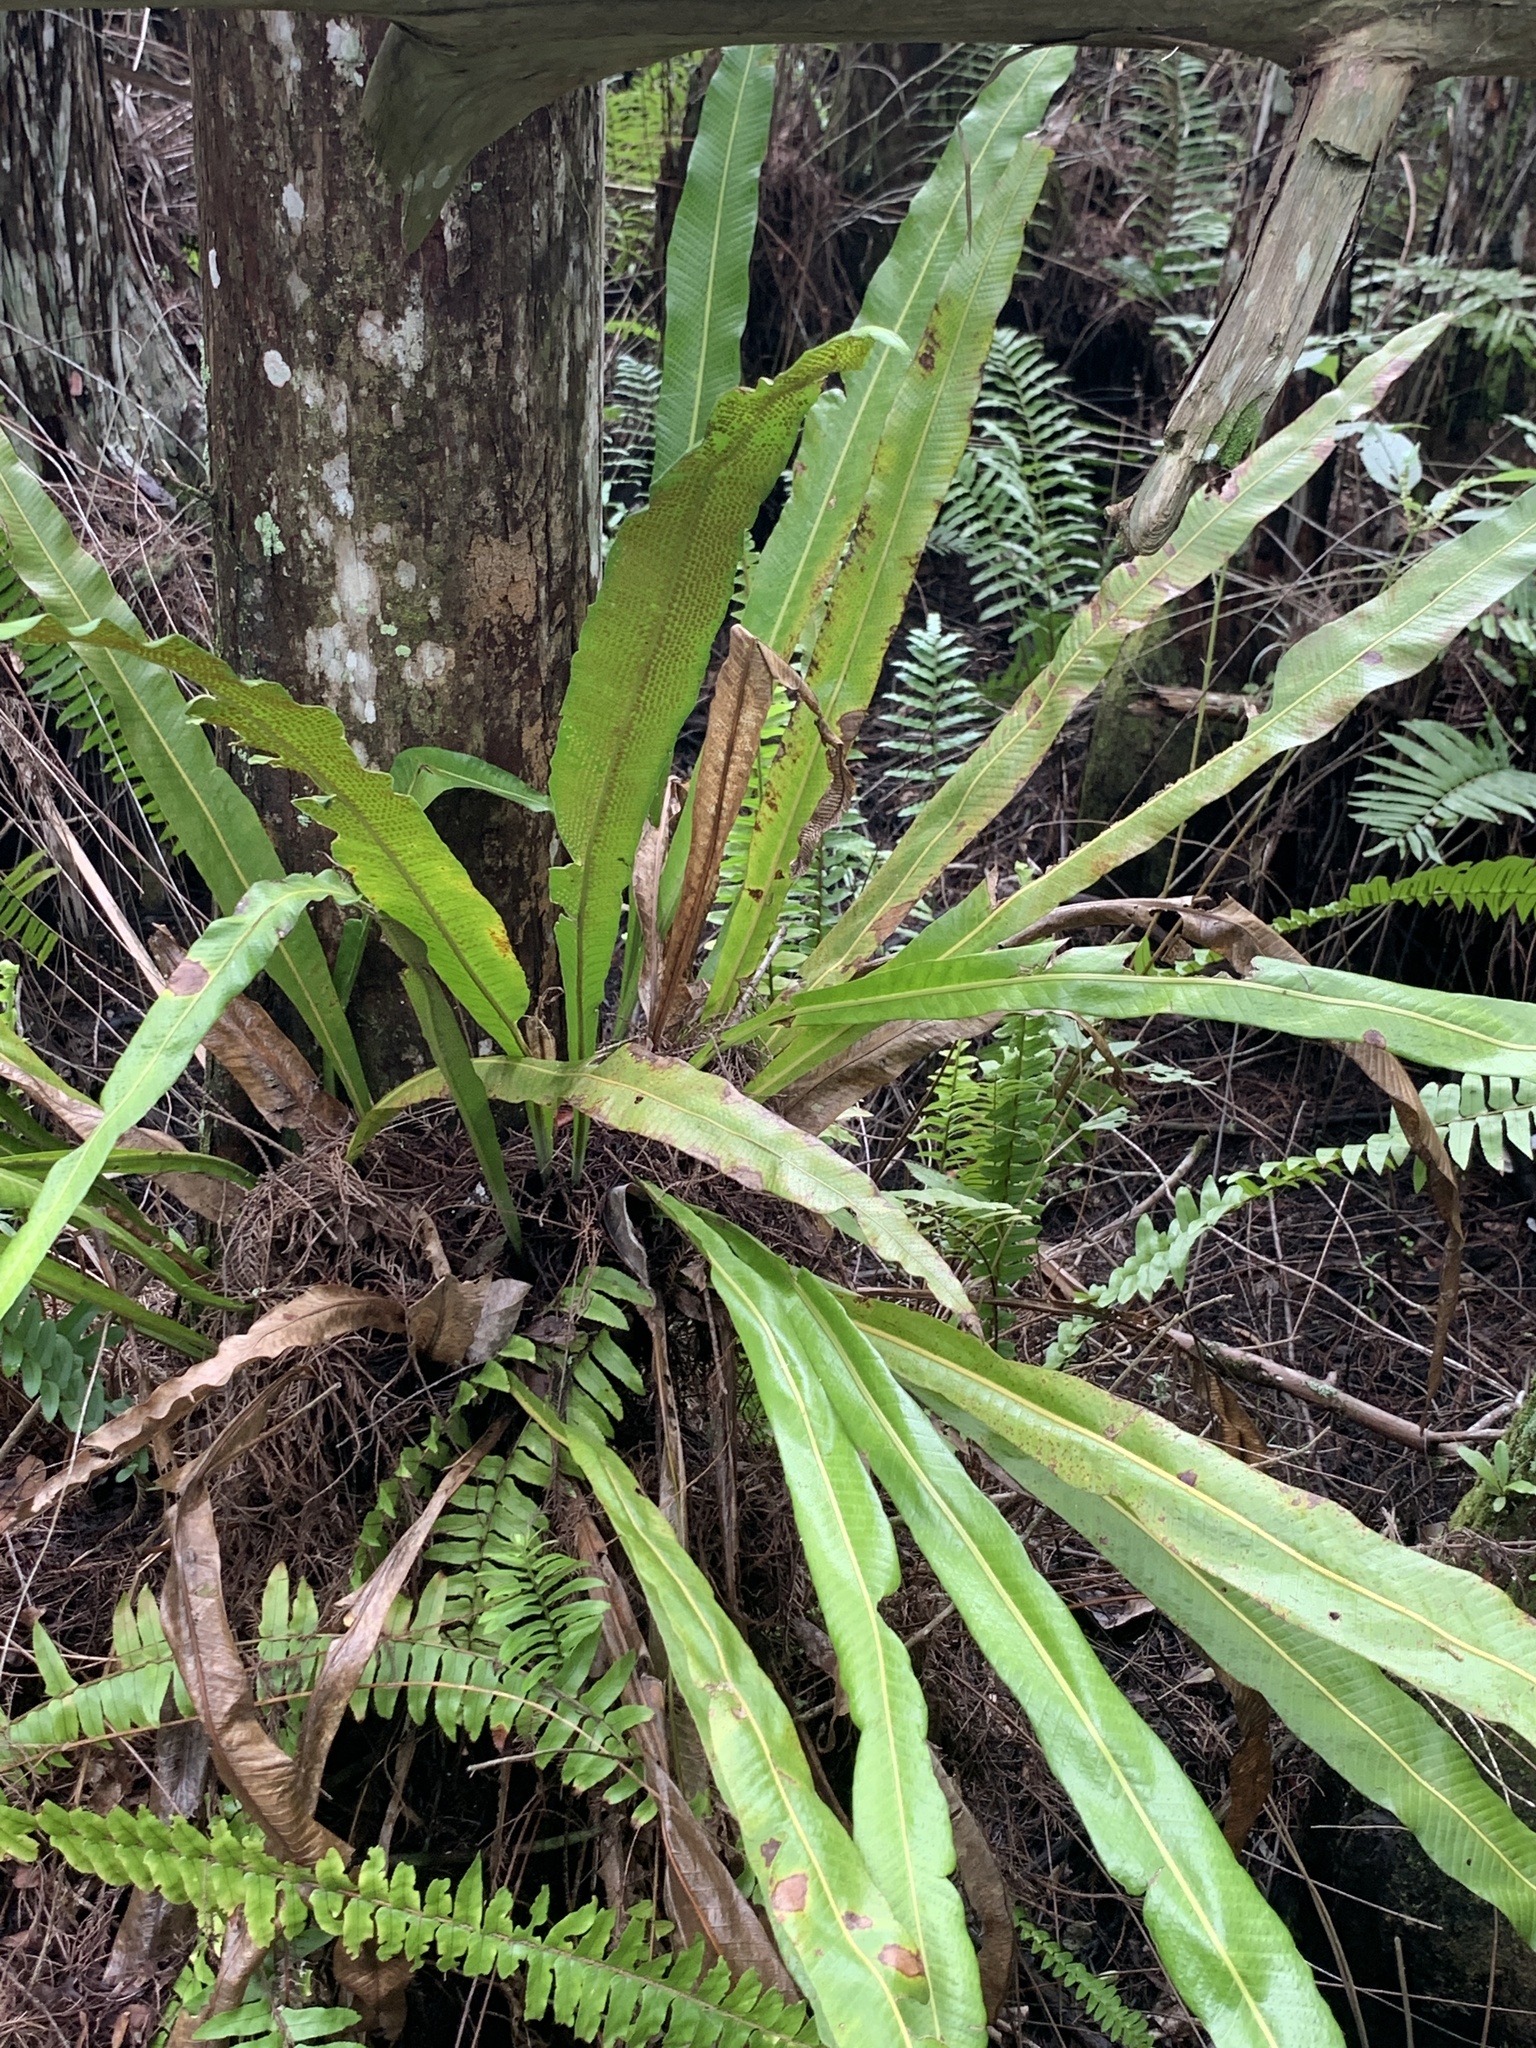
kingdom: Plantae
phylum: Tracheophyta
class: Polypodiopsida
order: Polypodiales
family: Polypodiaceae
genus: Campyloneurum
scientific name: Campyloneurum phyllitidis
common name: Cow-tongue fern
